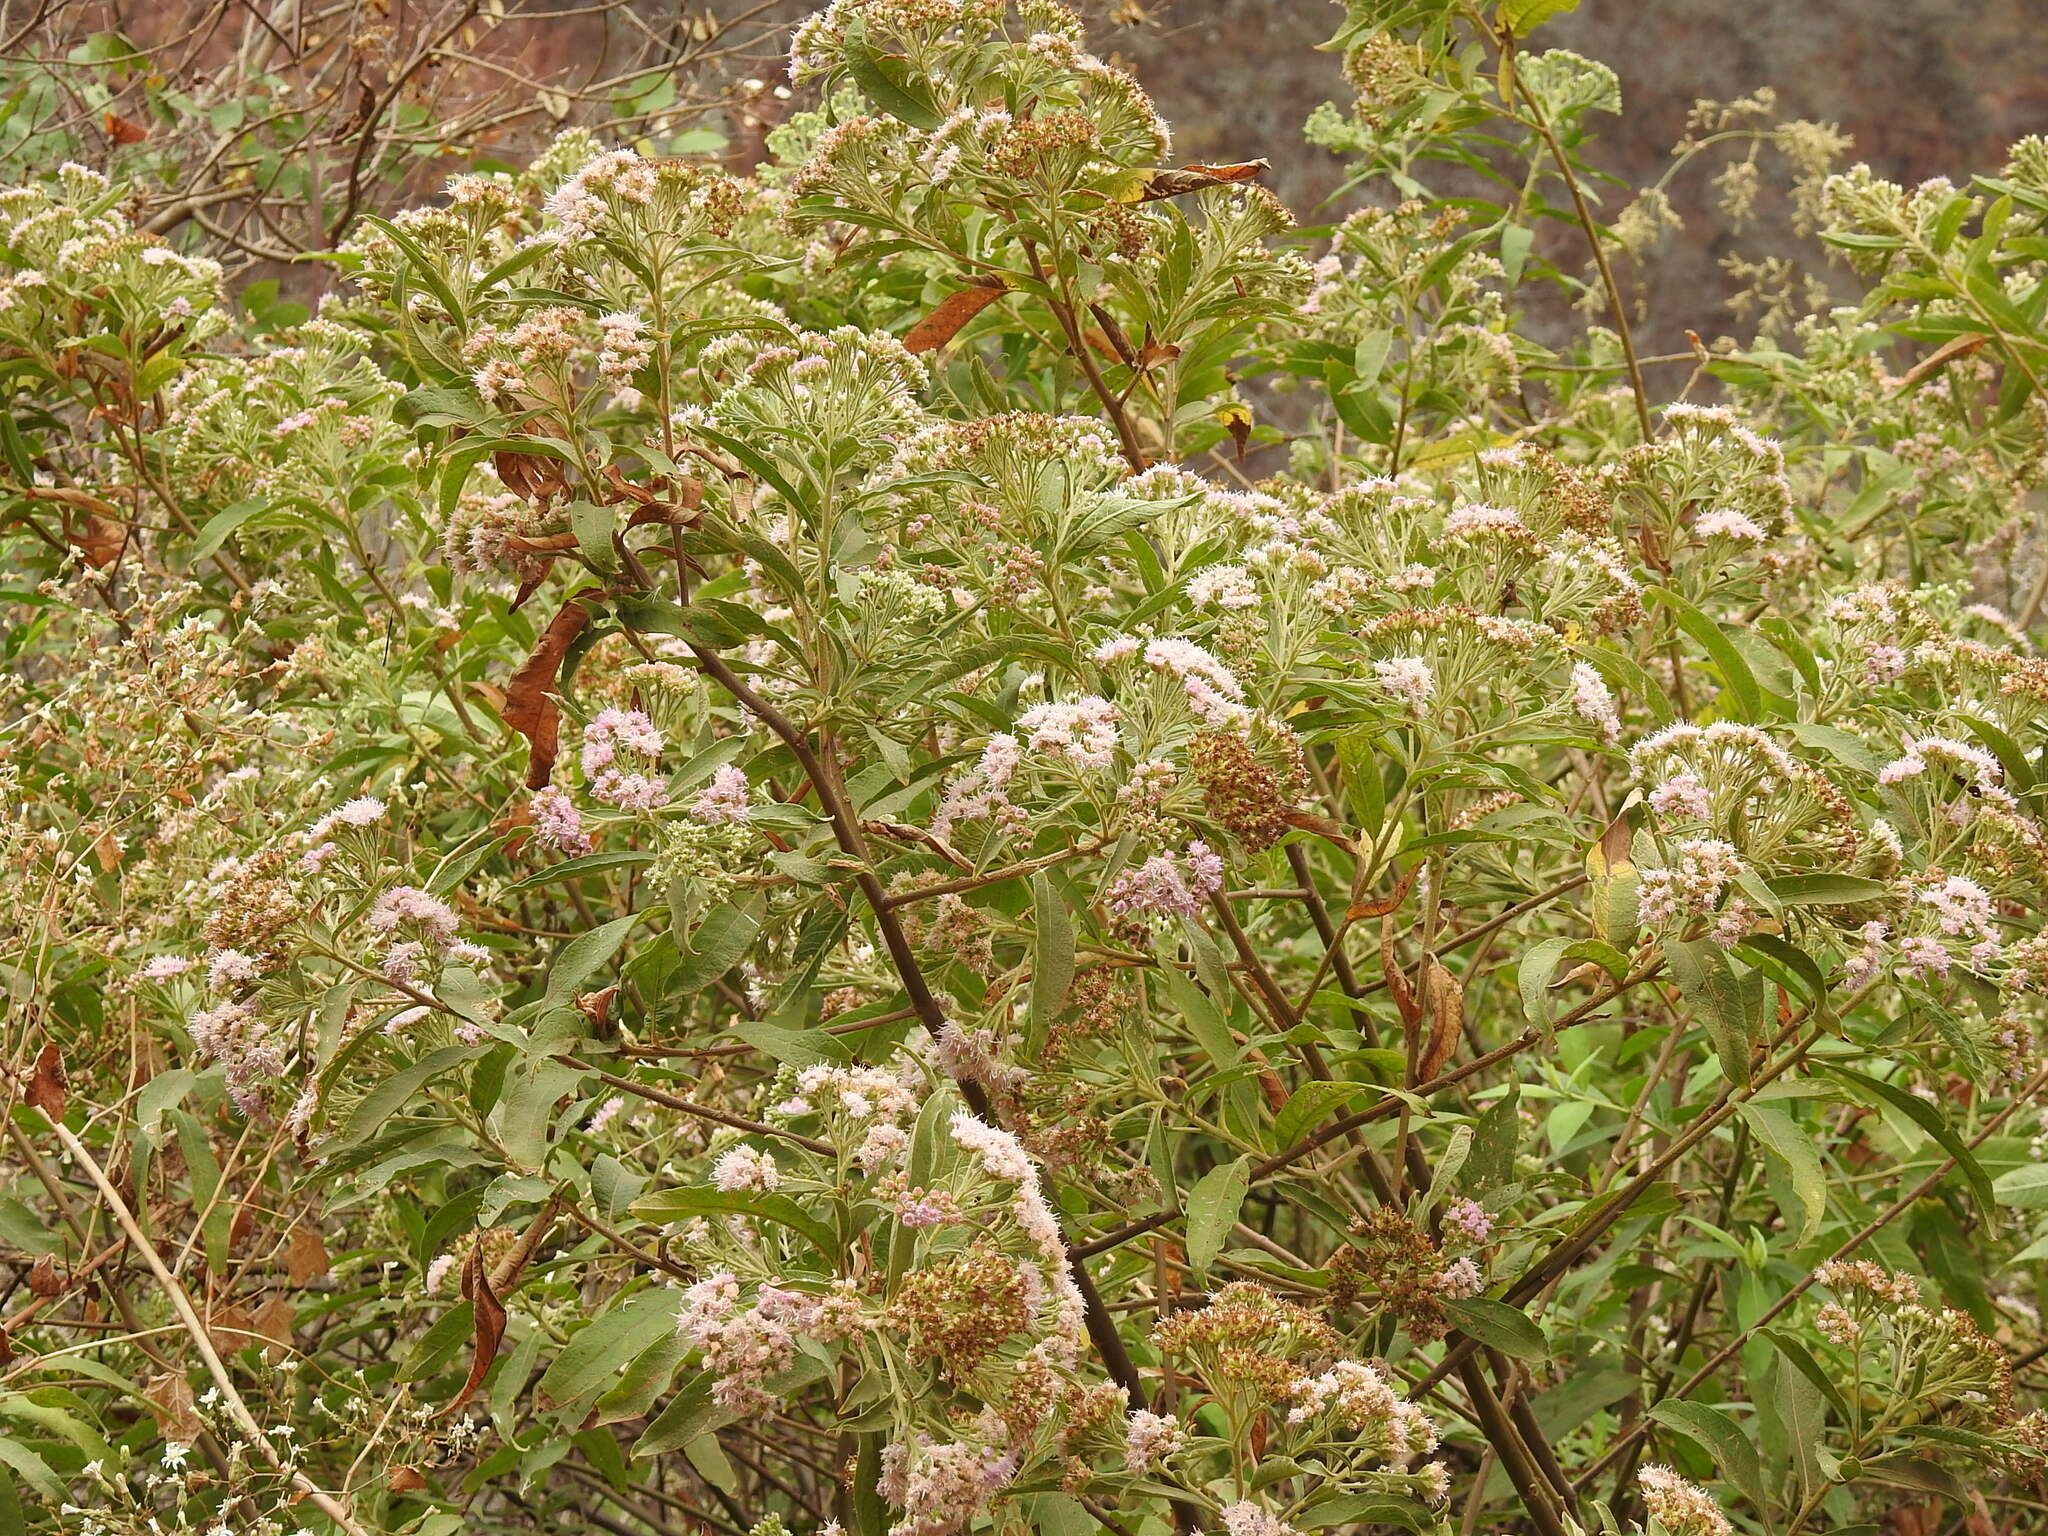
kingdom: Plantae
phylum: Tracheophyta
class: Magnoliopsida
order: Asterales
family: Asteraceae
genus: Tessaria
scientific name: Tessaria fastigiata
